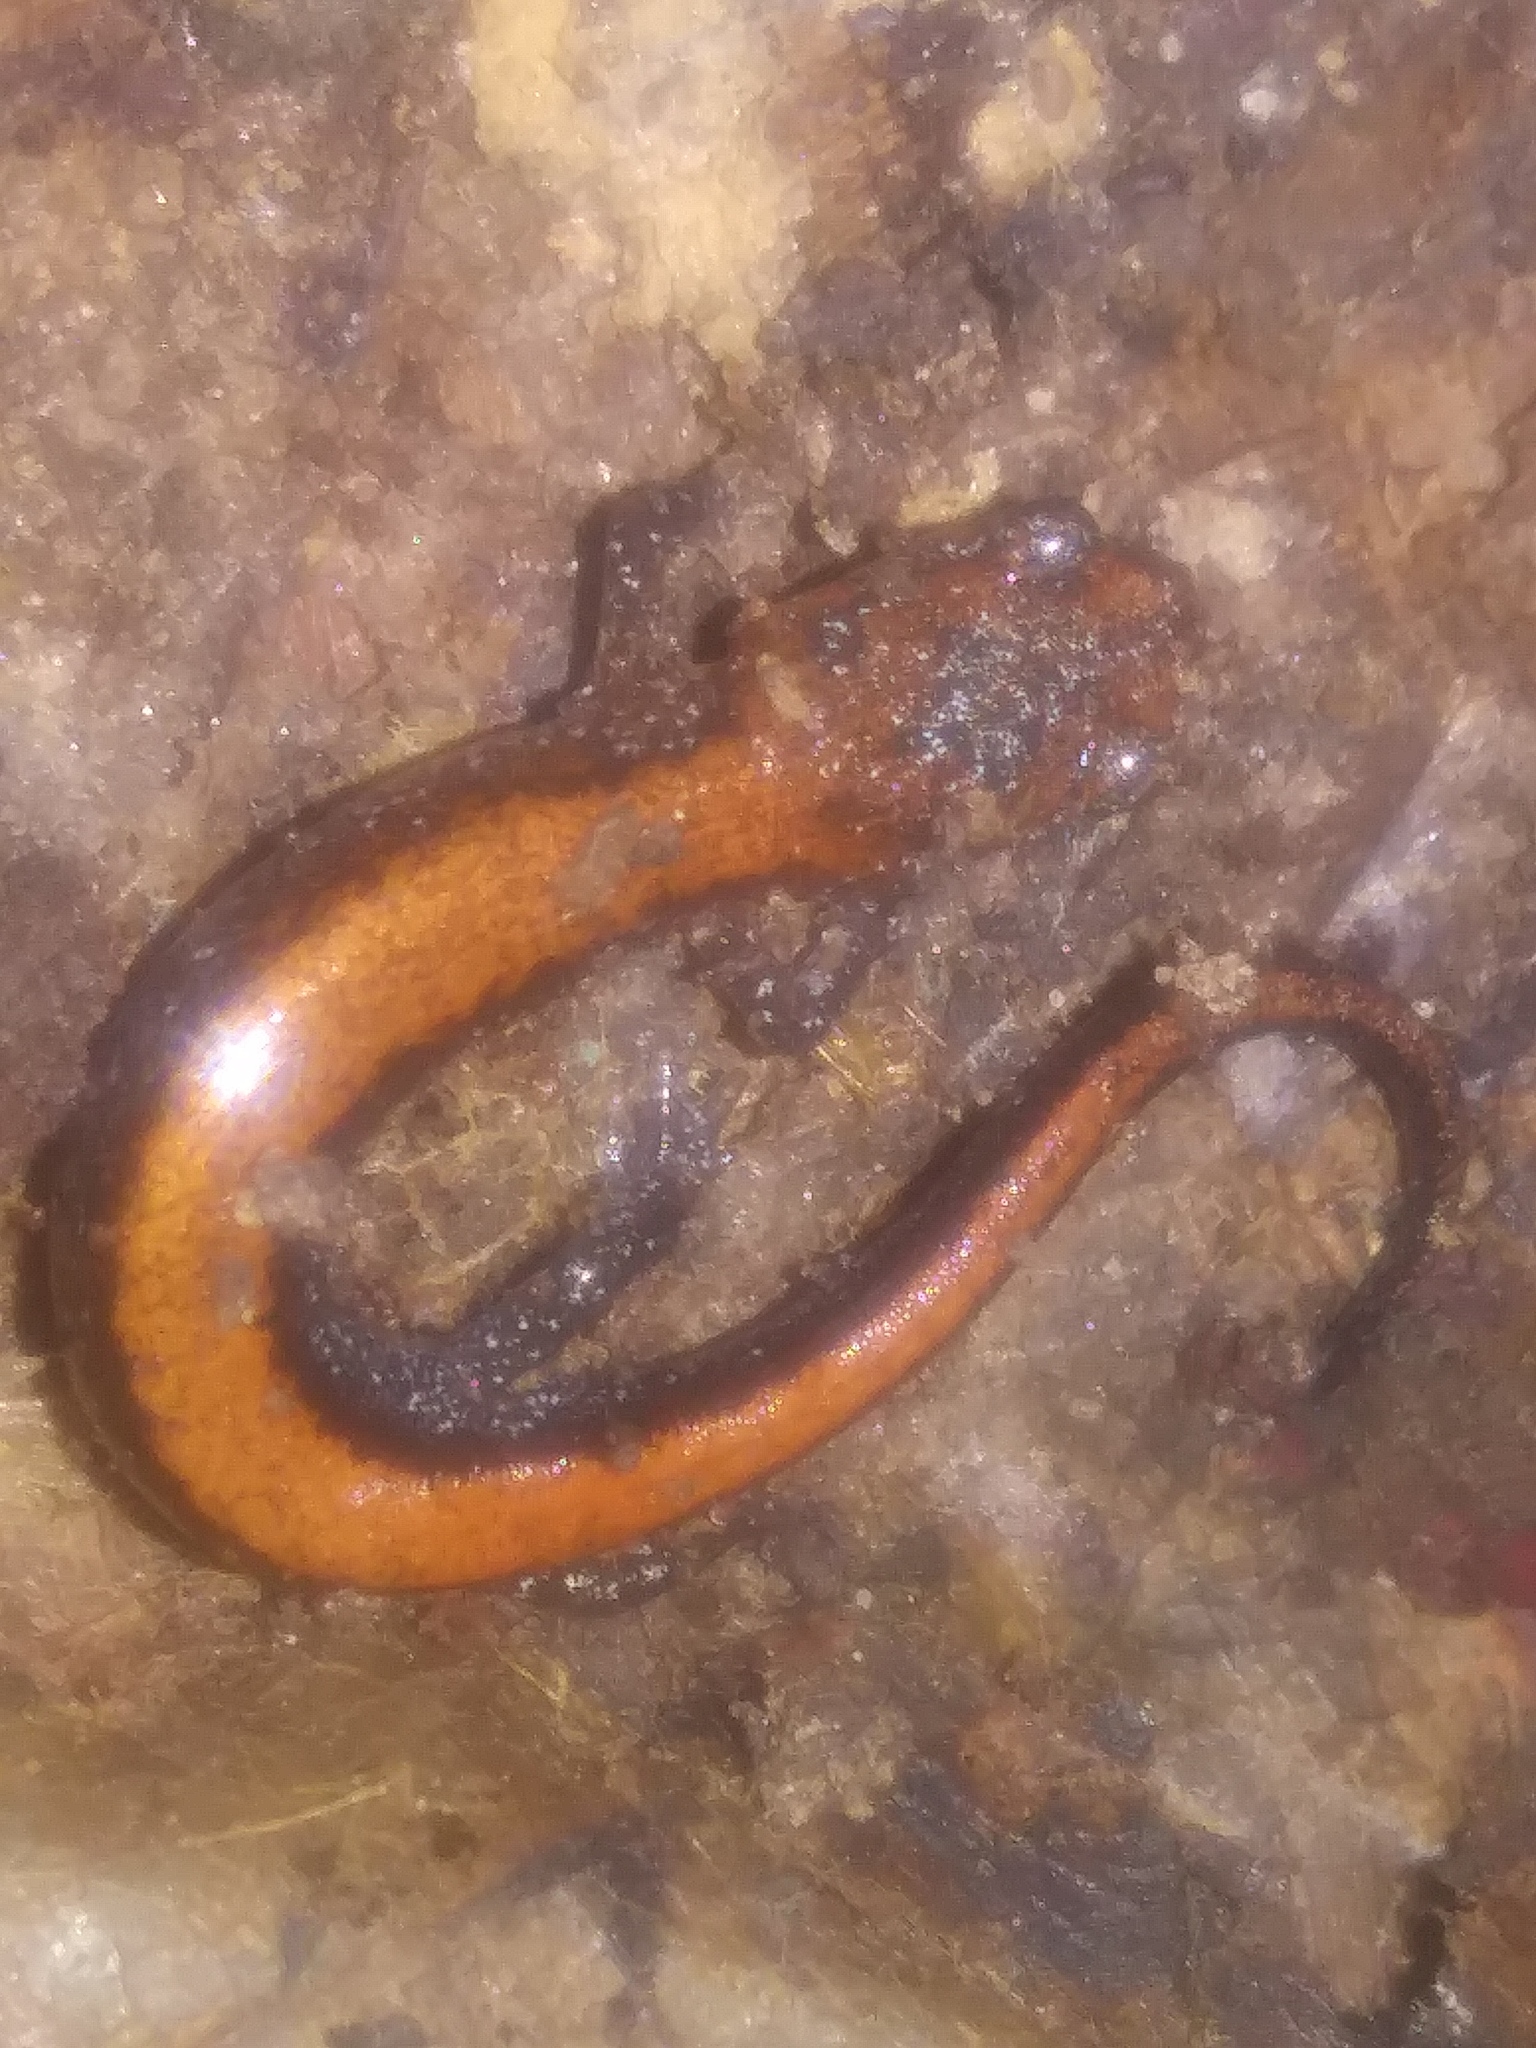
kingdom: Animalia
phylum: Chordata
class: Amphibia
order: Caudata
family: Plethodontidae
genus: Plethodon
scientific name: Plethodon cinereus
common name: Redback salamander
